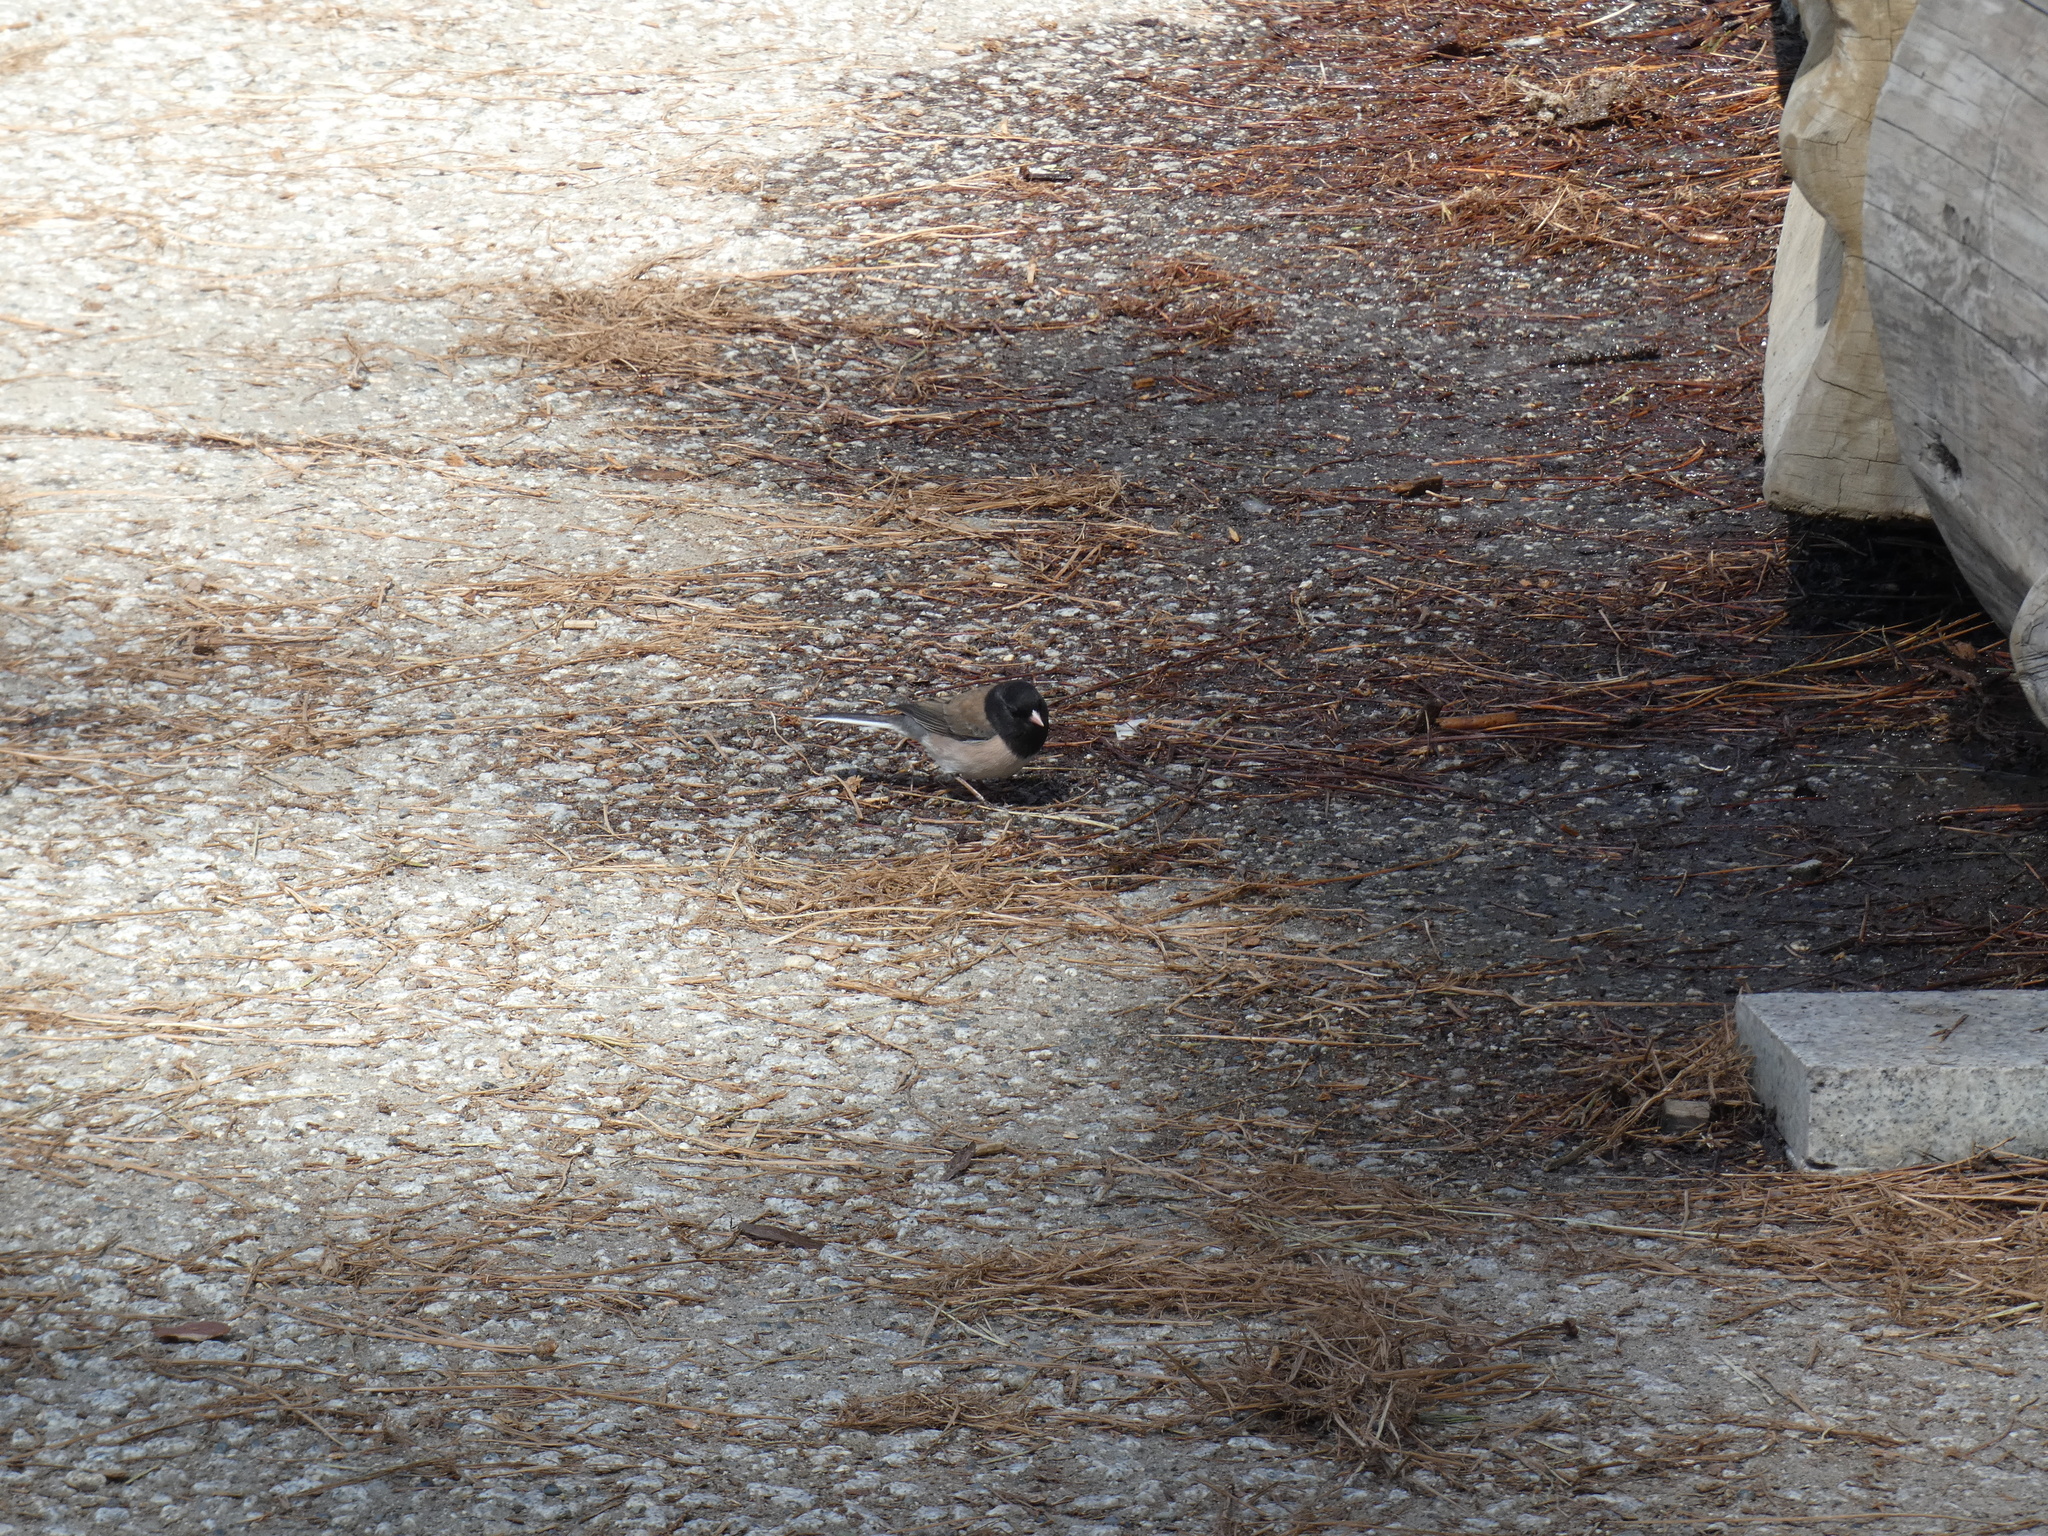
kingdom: Animalia
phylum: Chordata
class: Aves
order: Passeriformes
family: Passerellidae
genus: Junco
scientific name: Junco hyemalis
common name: Dark-eyed junco
